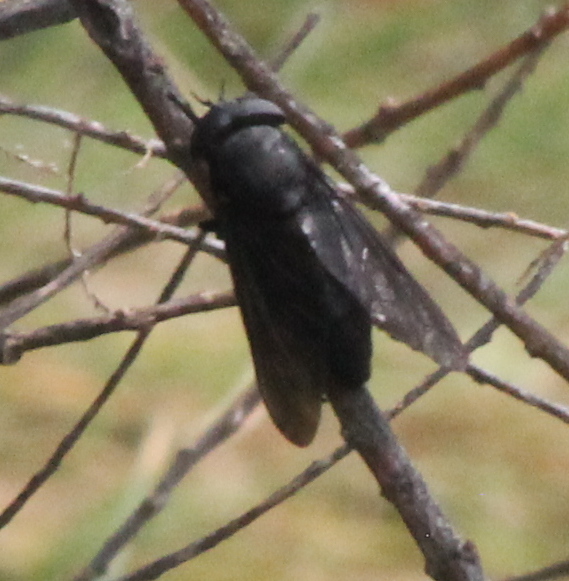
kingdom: Animalia
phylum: Arthropoda
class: Insecta
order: Diptera
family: Tabanidae
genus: Tabanus
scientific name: Tabanus atratus
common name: Black horse fly
